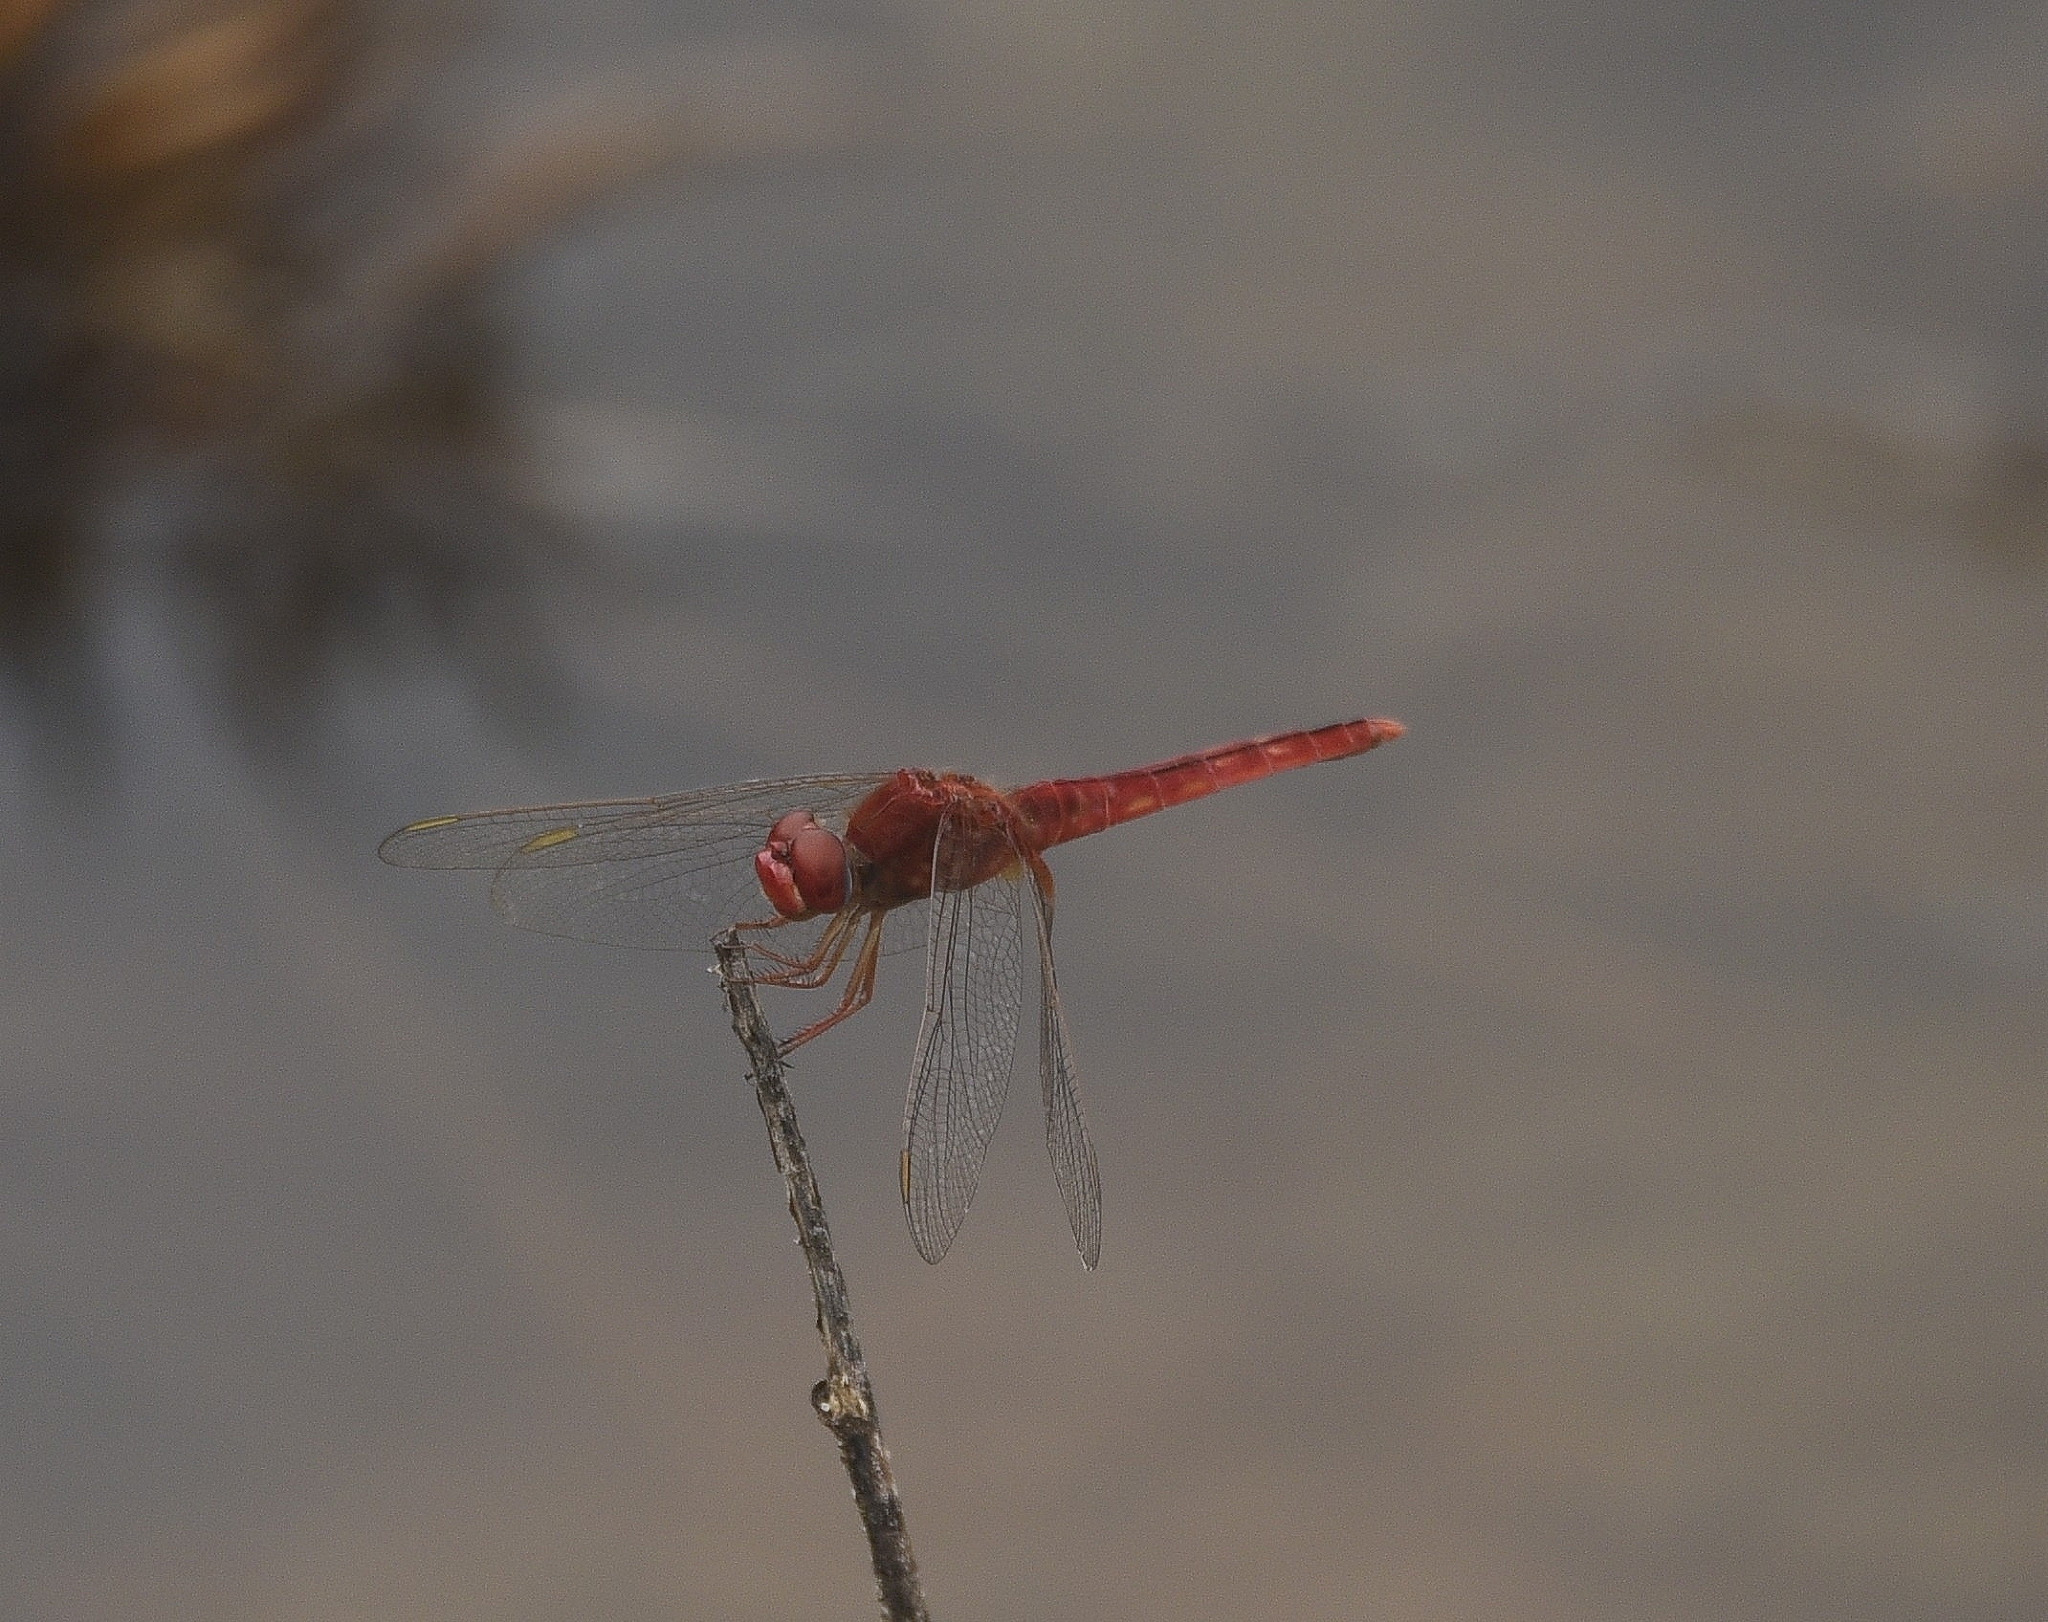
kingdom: Animalia
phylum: Arthropoda
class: Insecta
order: Odonata
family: Libellulidae
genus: Crocothemis
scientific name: Crocothemis servilia
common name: Scarlet skimmer
